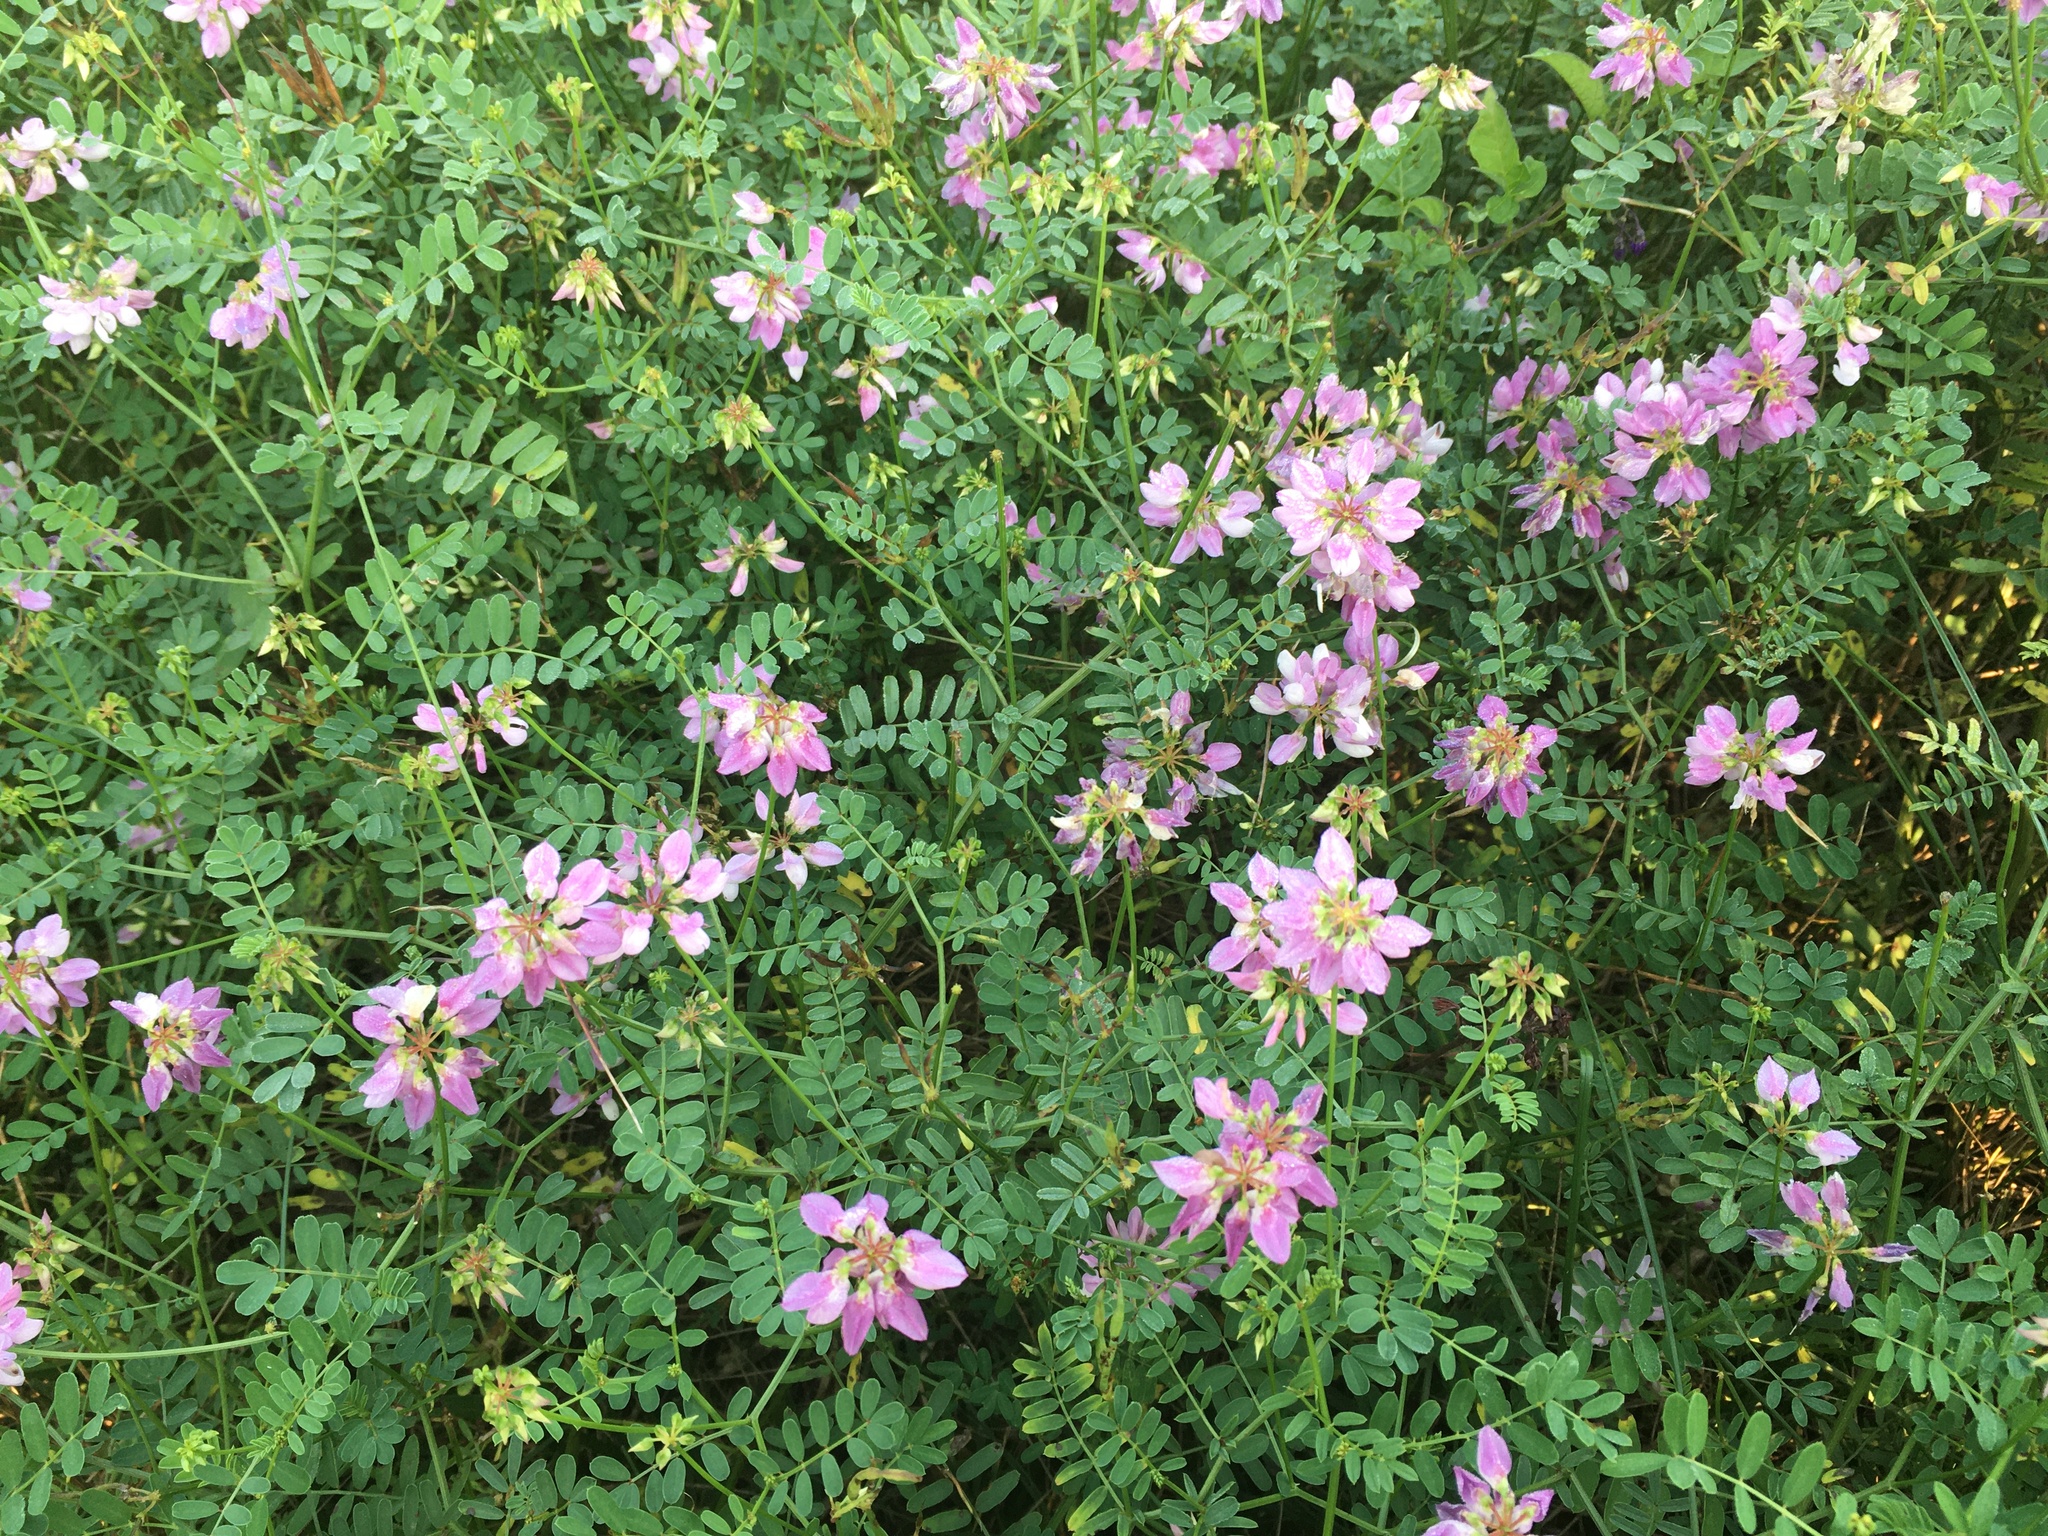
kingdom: Plantae
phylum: Tracheophyta
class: Magnoliopsida
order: Fabales
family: Fabaceae
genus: Coronilla
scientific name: Coronilla varia
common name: Crownvetch
